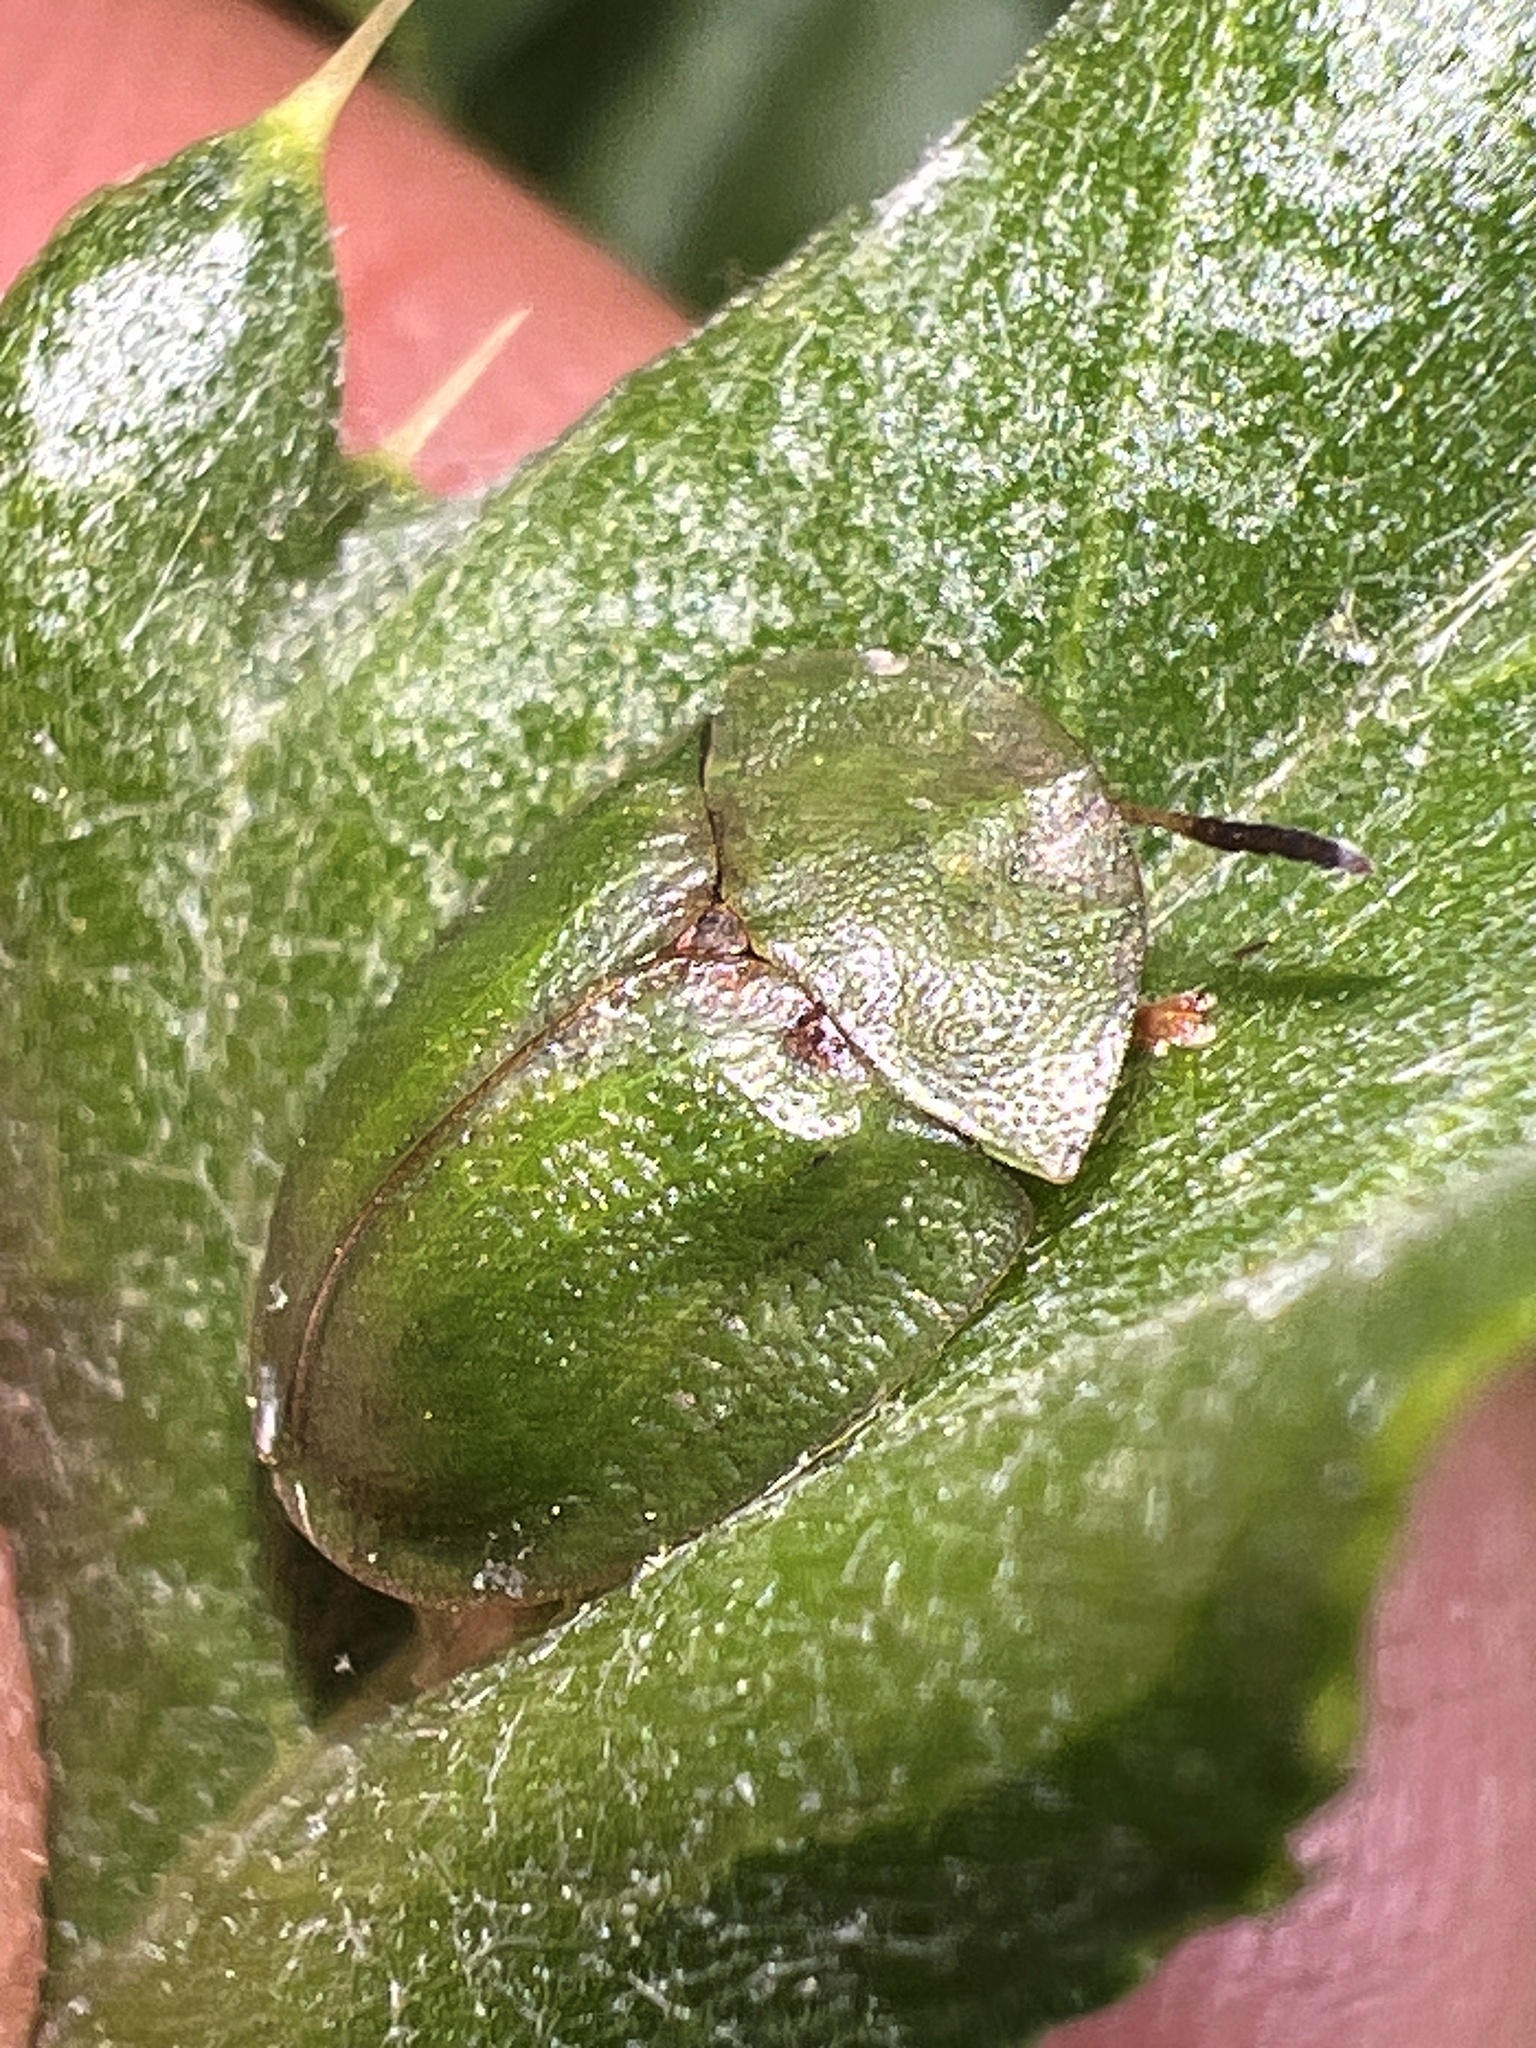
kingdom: Animalia
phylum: Arthropoda
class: Insecta
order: Coleoptera
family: Chrysomelidae
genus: Cassida
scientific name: Cassida rubiginosa
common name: Thistle tortoise beetle
